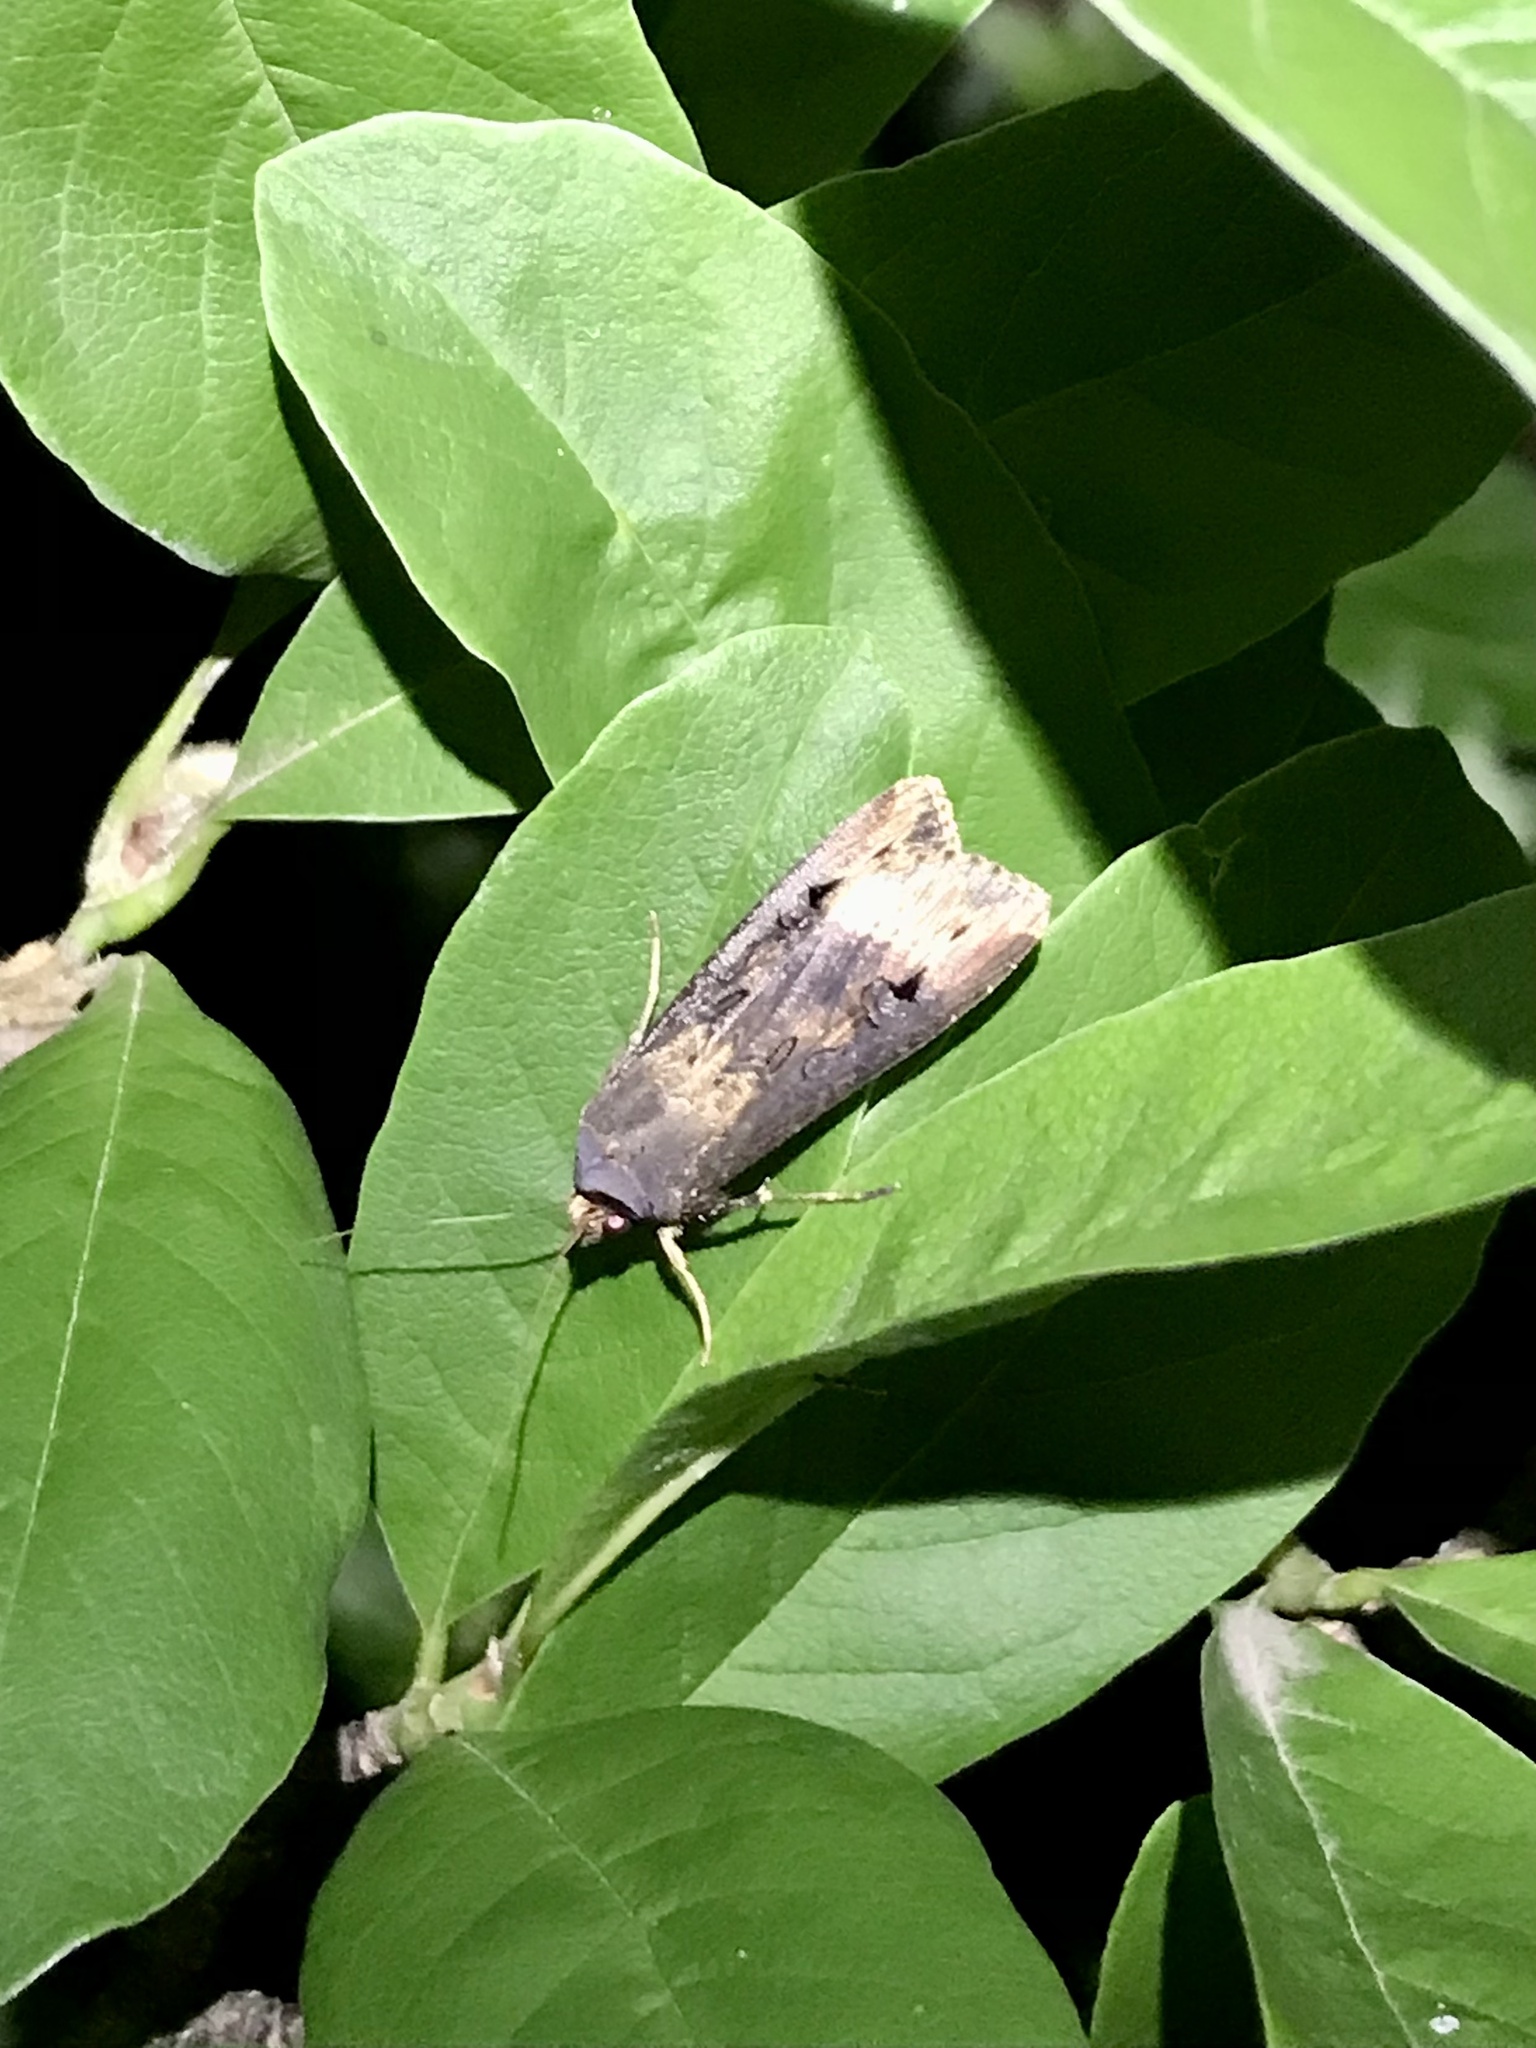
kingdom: Animalia
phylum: Arthropoda
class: Insecta
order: Lepidoptera
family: Noctuidae
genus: Agrotis
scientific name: Agrotis ipsilon
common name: Dark sword-grass
